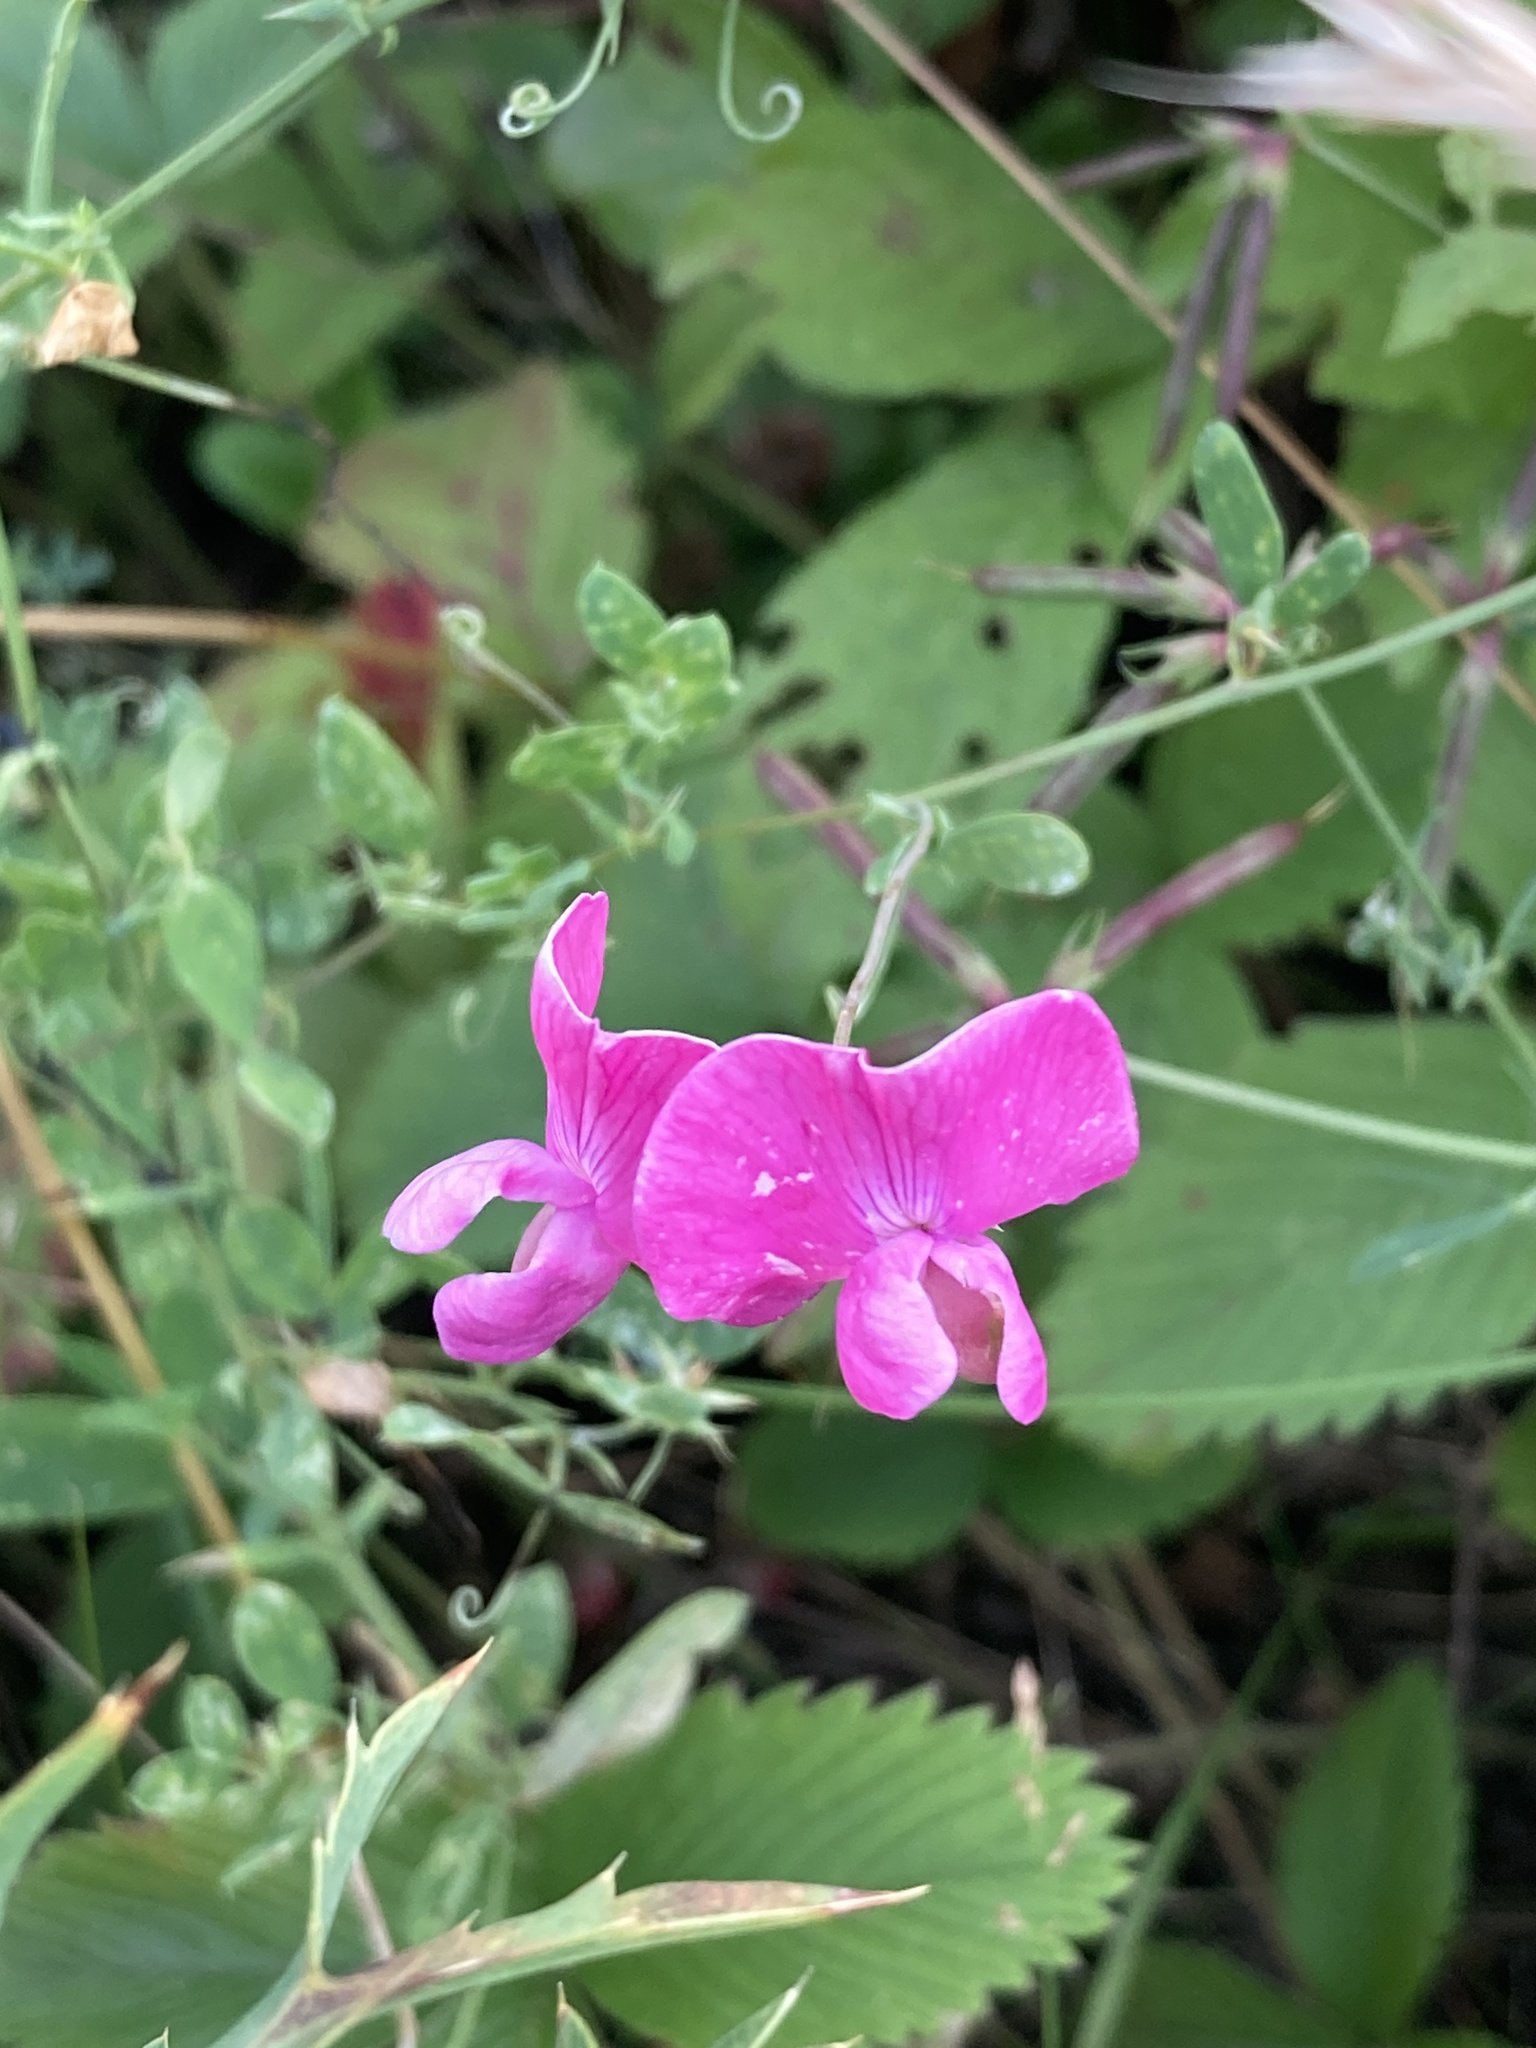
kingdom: Plantae
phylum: Tracheophyta
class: Magnoliopsida
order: Fabales
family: Fabaceae
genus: Lathyrus
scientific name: Lathyrus tuberosus
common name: Tuberous pea
